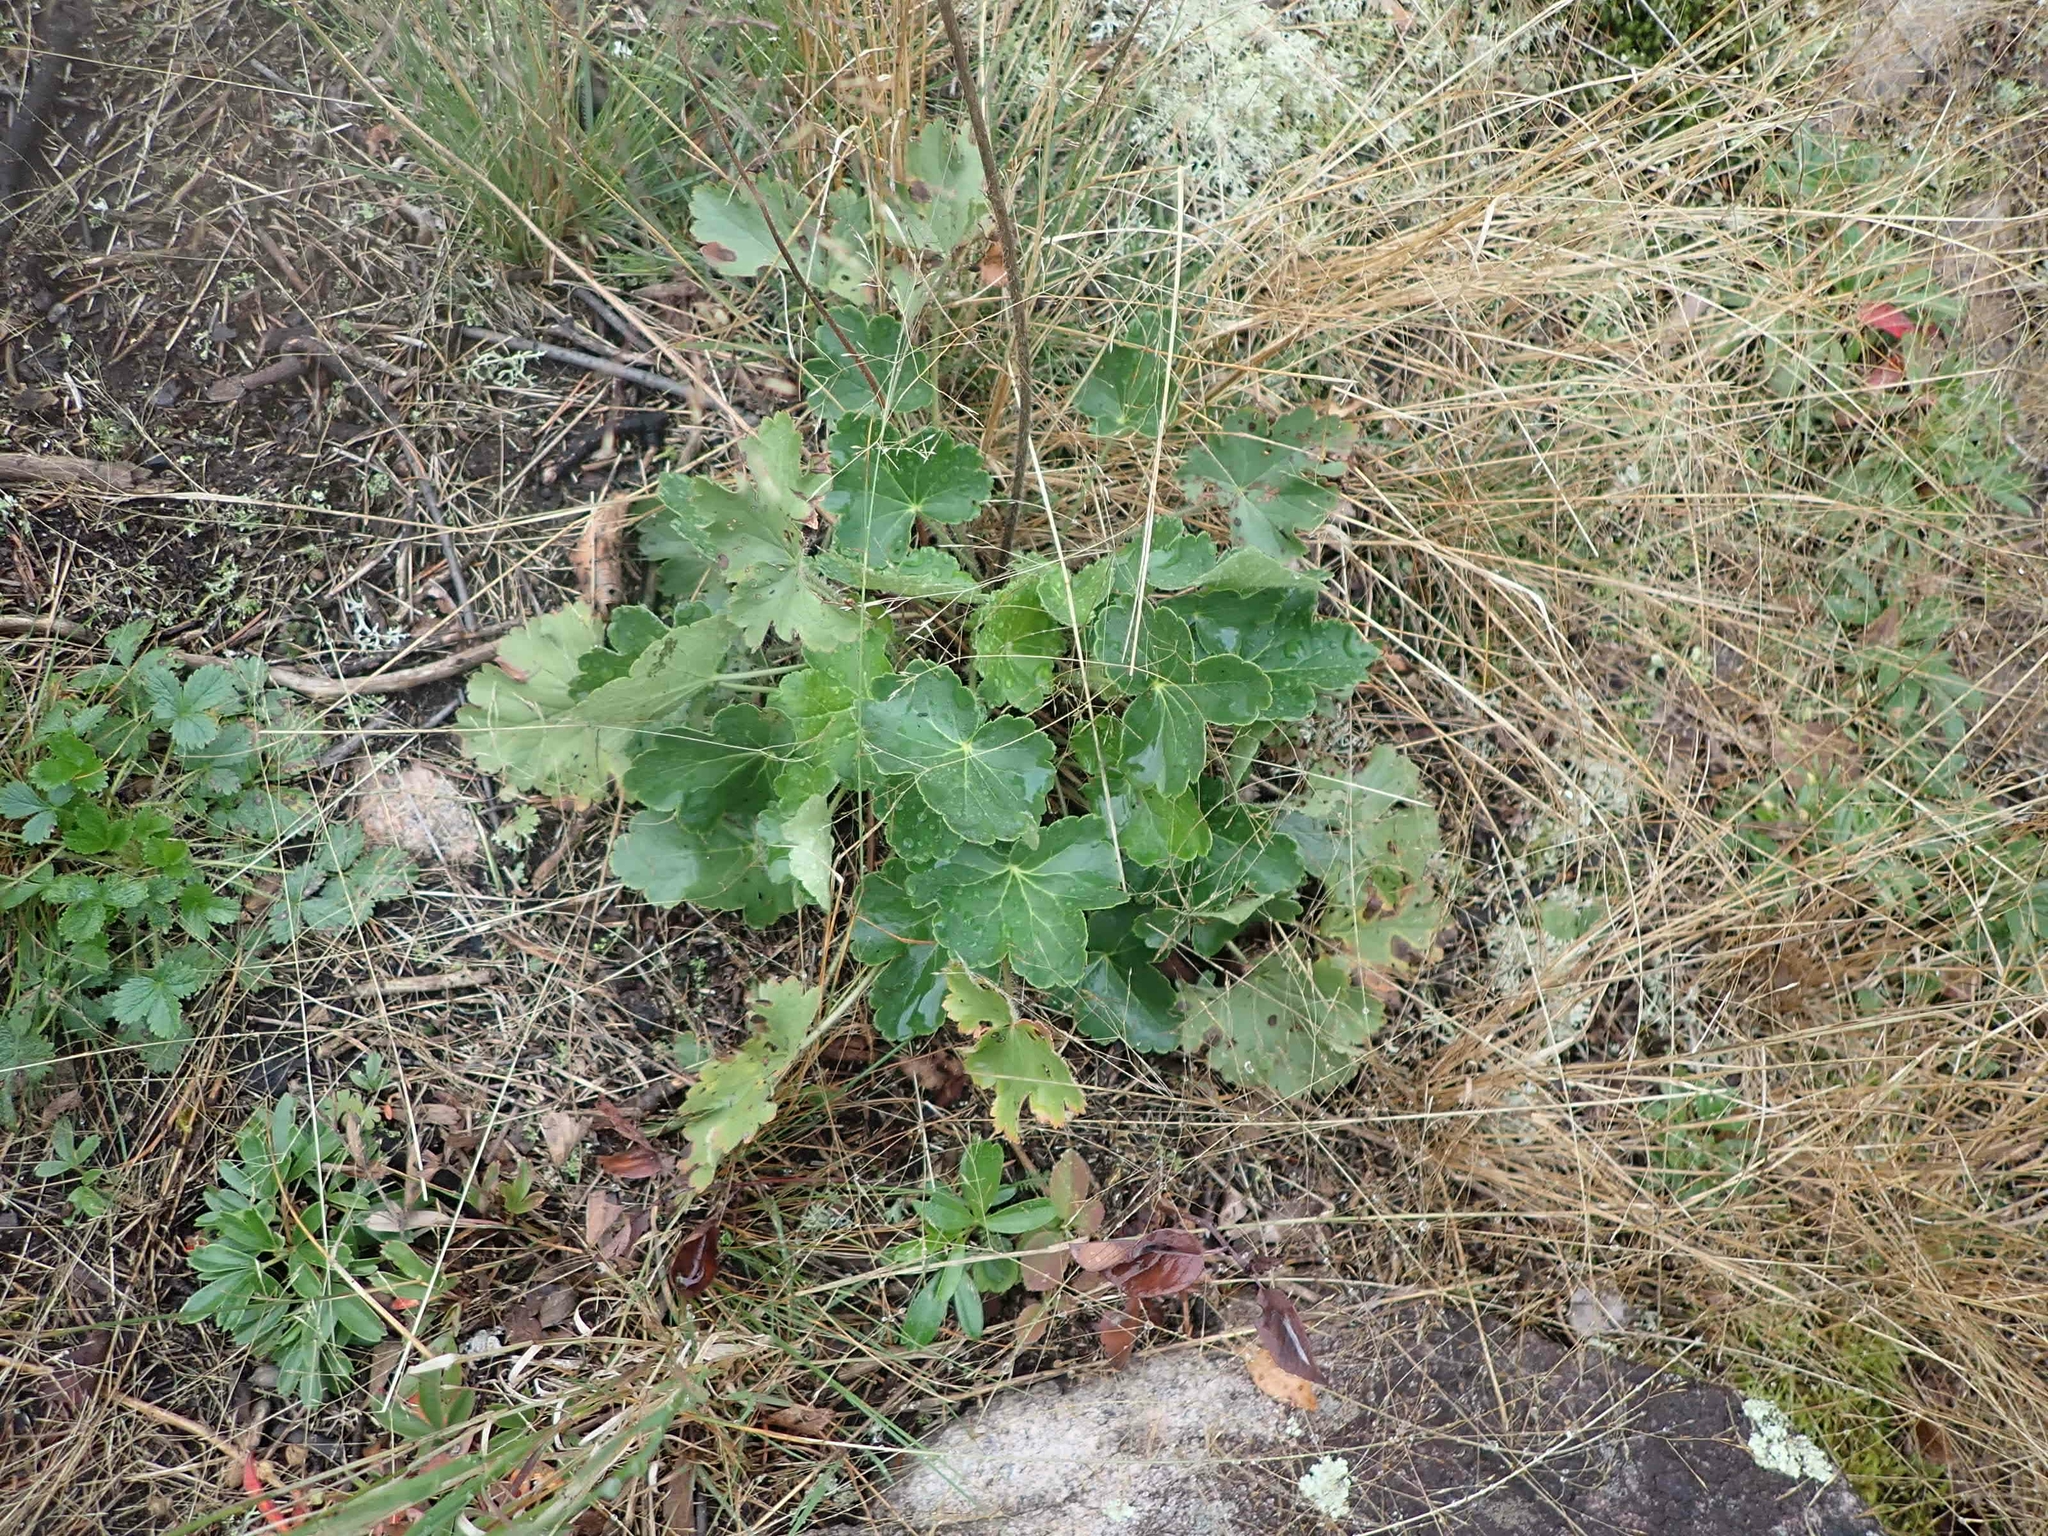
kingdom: Plantae
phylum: Tracheophyta
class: Magnoliopsida
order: Saxifragales
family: Saxifragaceae
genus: Heuchera
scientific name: Heuchera richardsonii
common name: Richardson's alumroot
